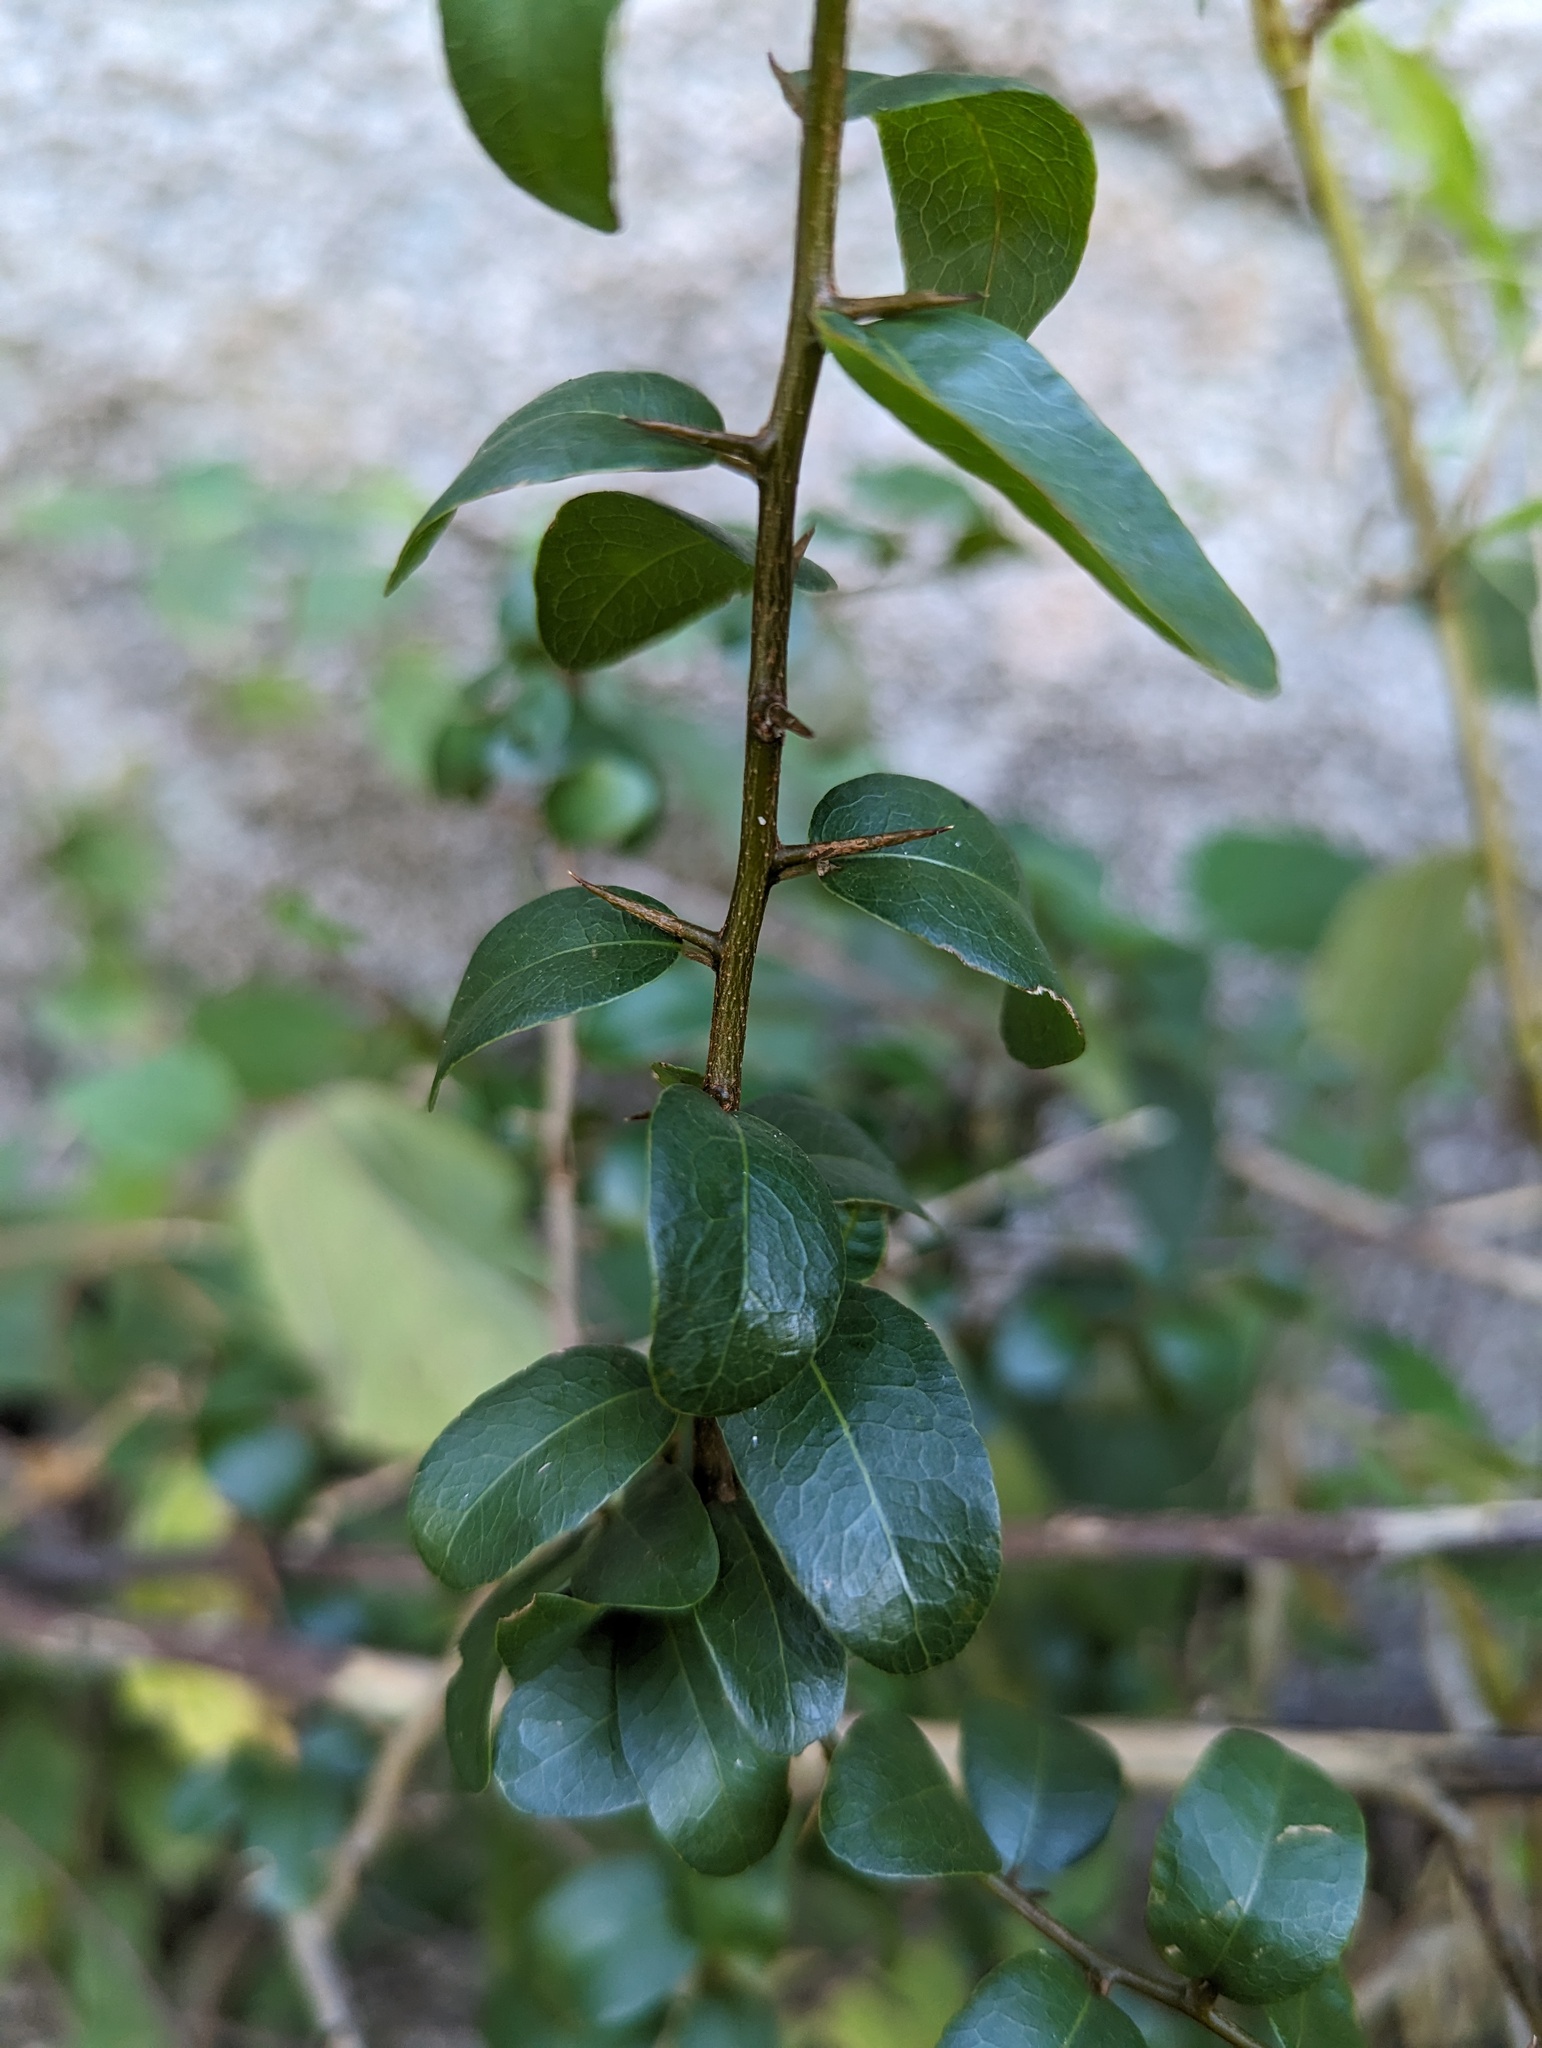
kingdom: Plantae
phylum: Tracheophyta
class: Magnoliopsida
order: Ericales
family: Sapotaceae
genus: Sideroxylon
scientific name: Sideroxylon peninsulare
